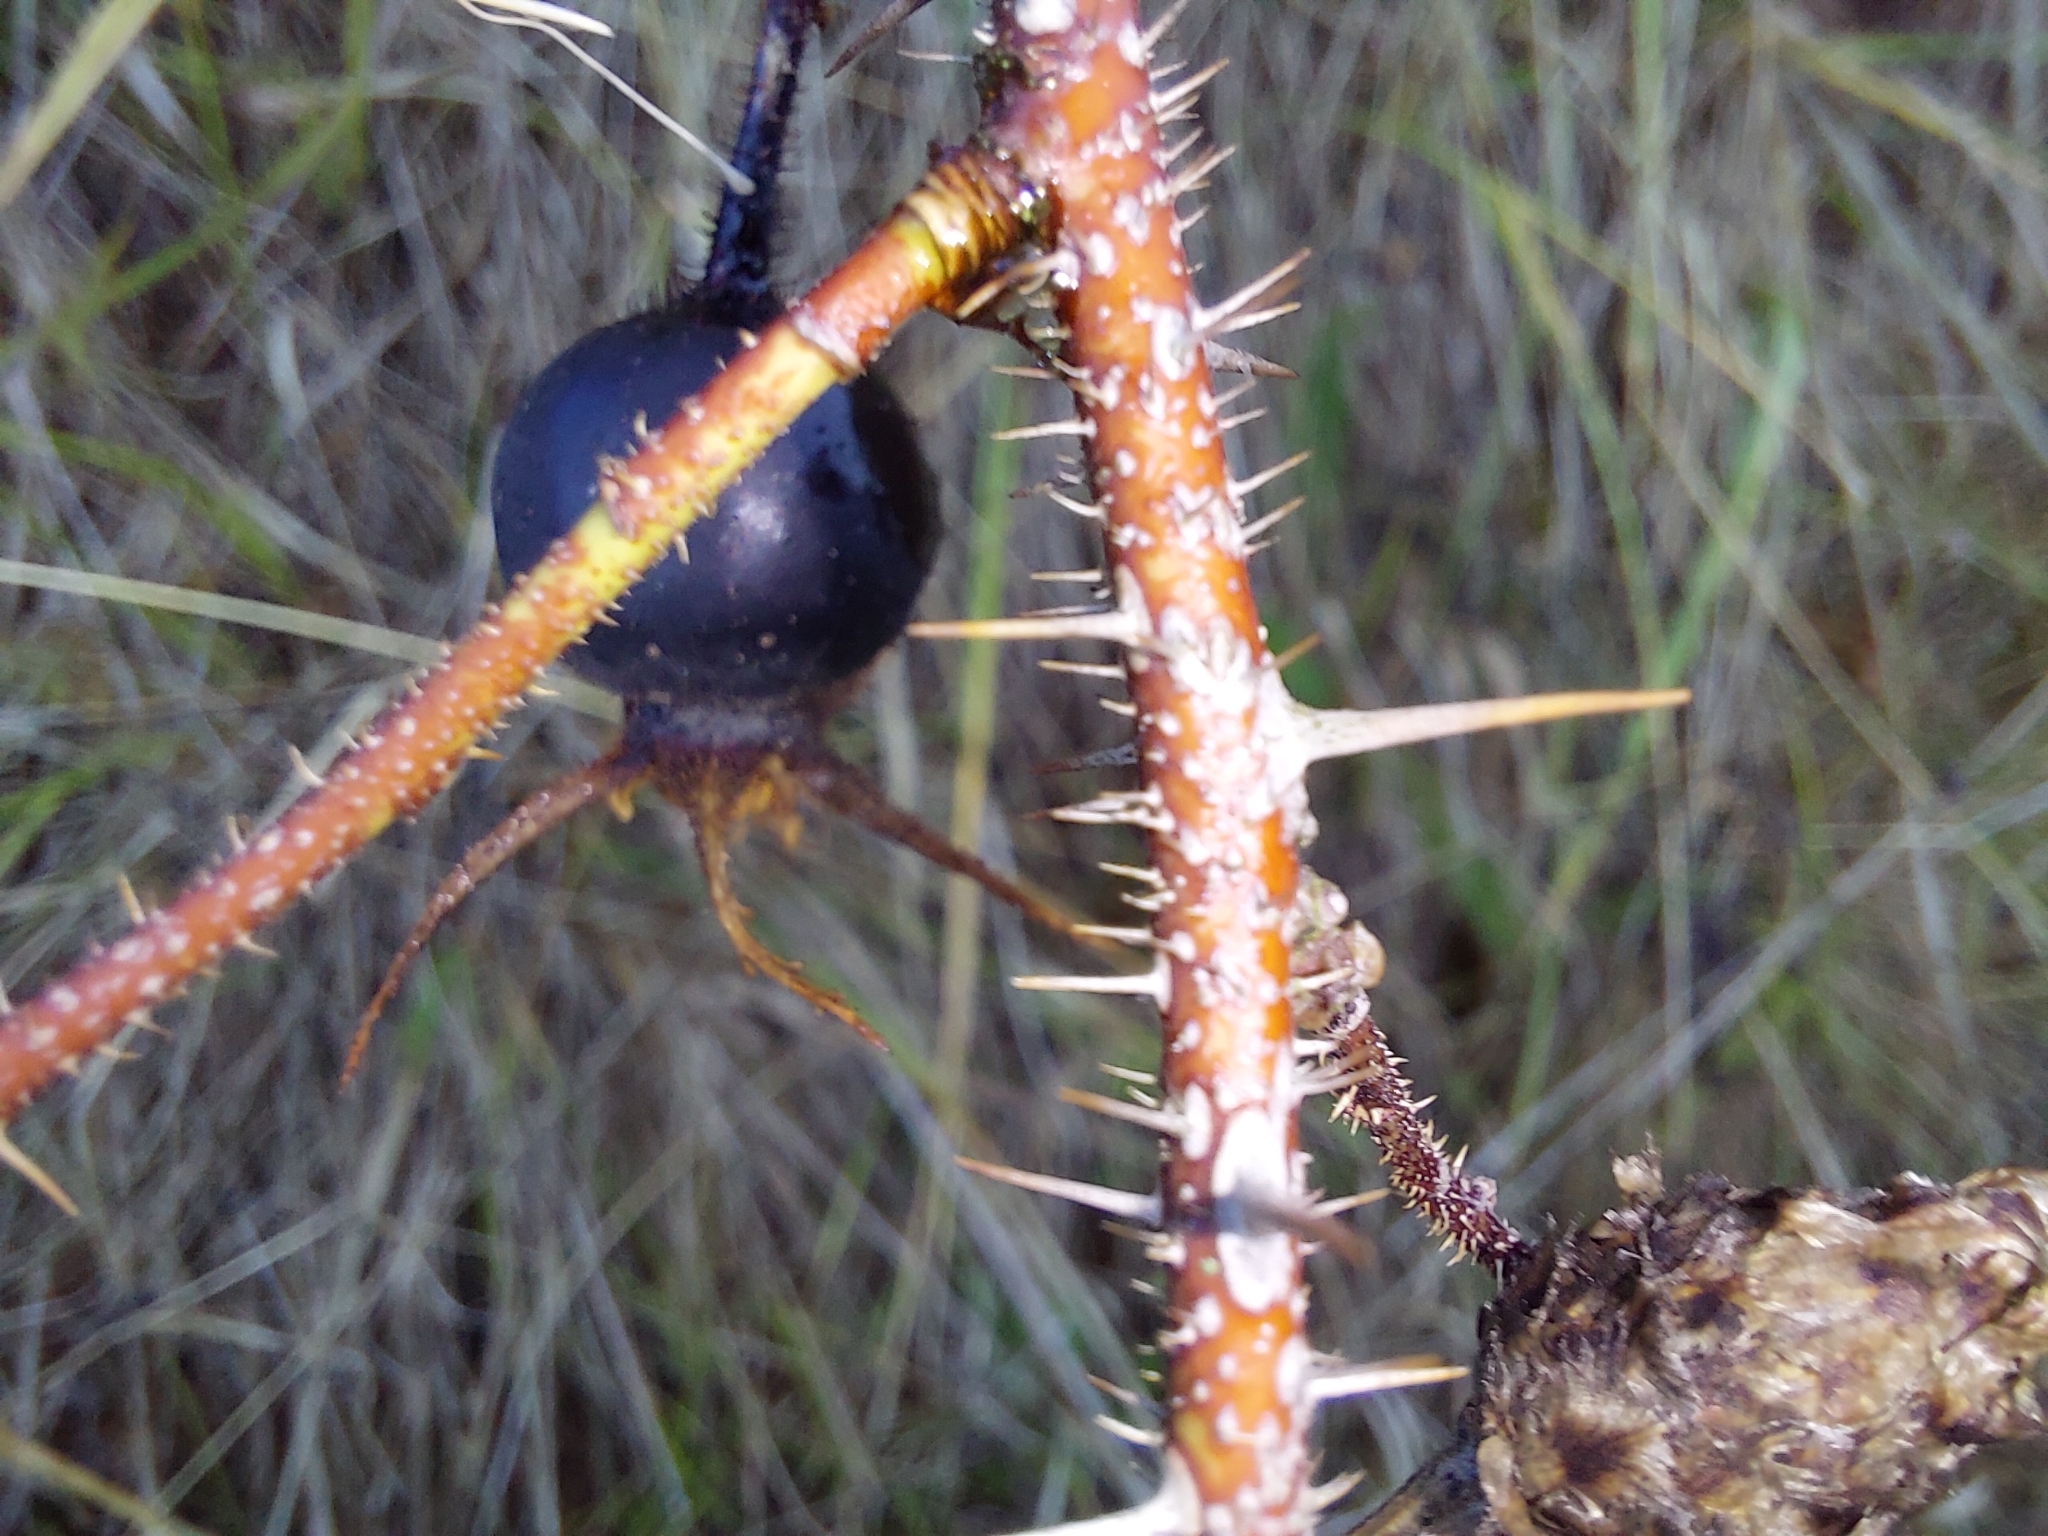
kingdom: Plantae
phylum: Tracheophyta
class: Magnoliopsida
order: Rosales
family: Rosaceae
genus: Rosa
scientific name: Rosa spinosissima
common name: Burnet rose
